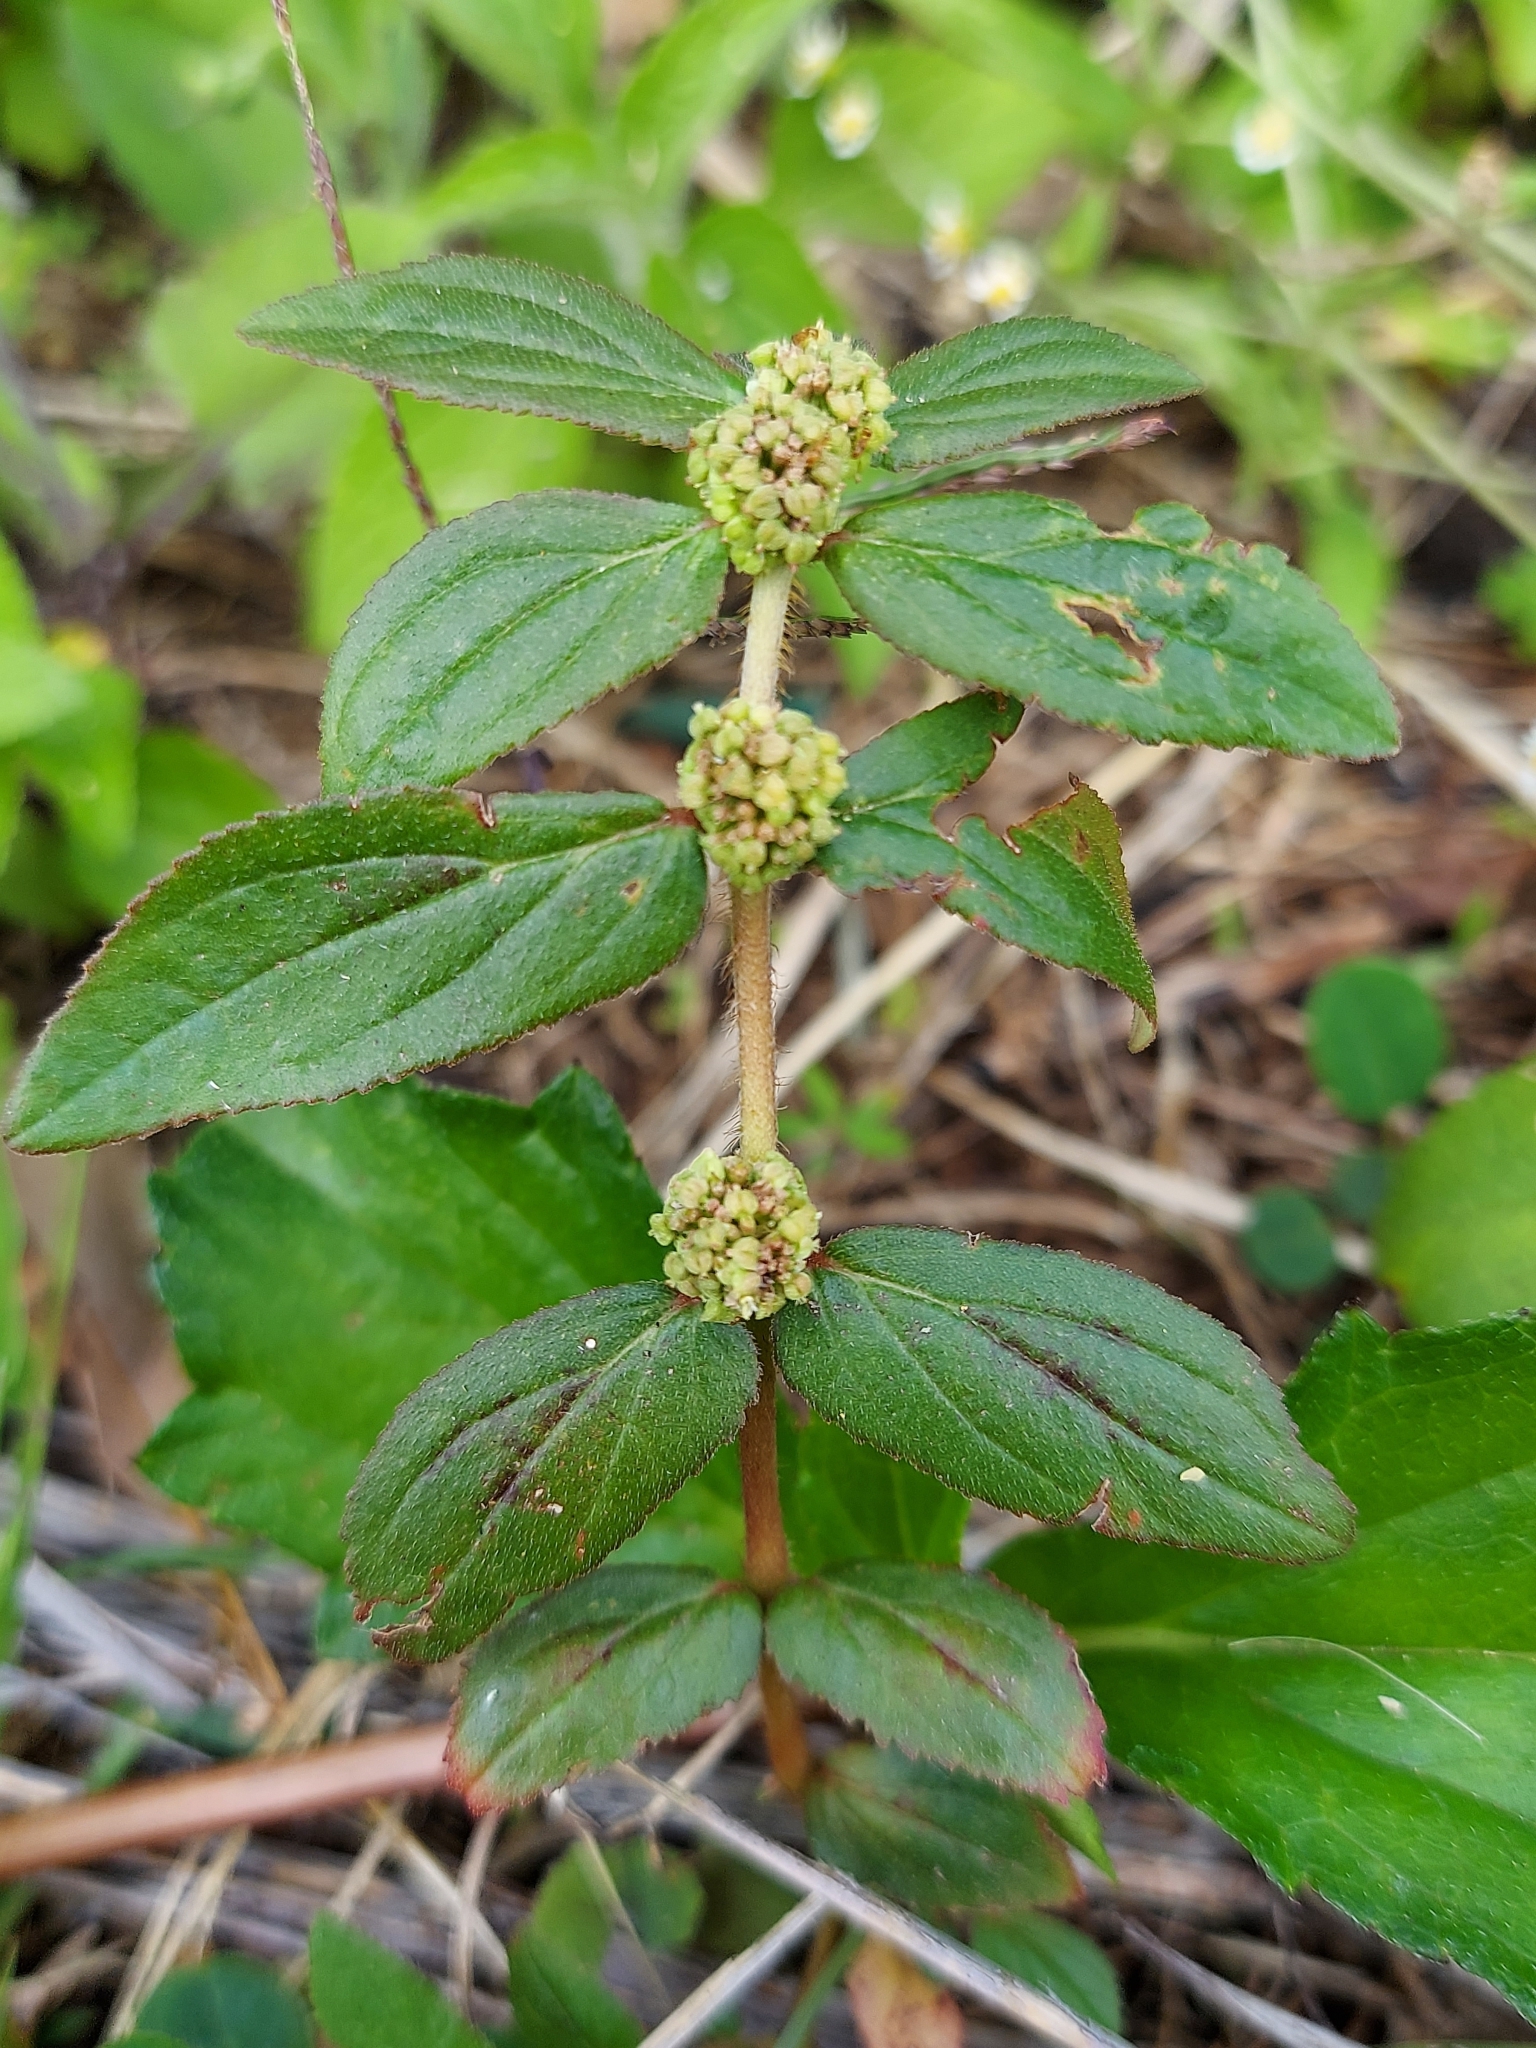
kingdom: Plantae
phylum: Tracheophyta
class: Magnoliopsida
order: Malpighiales
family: Euphorbiaceae
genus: Euphorbia
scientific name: Euphorbia hirta
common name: Pillpod sandmat
